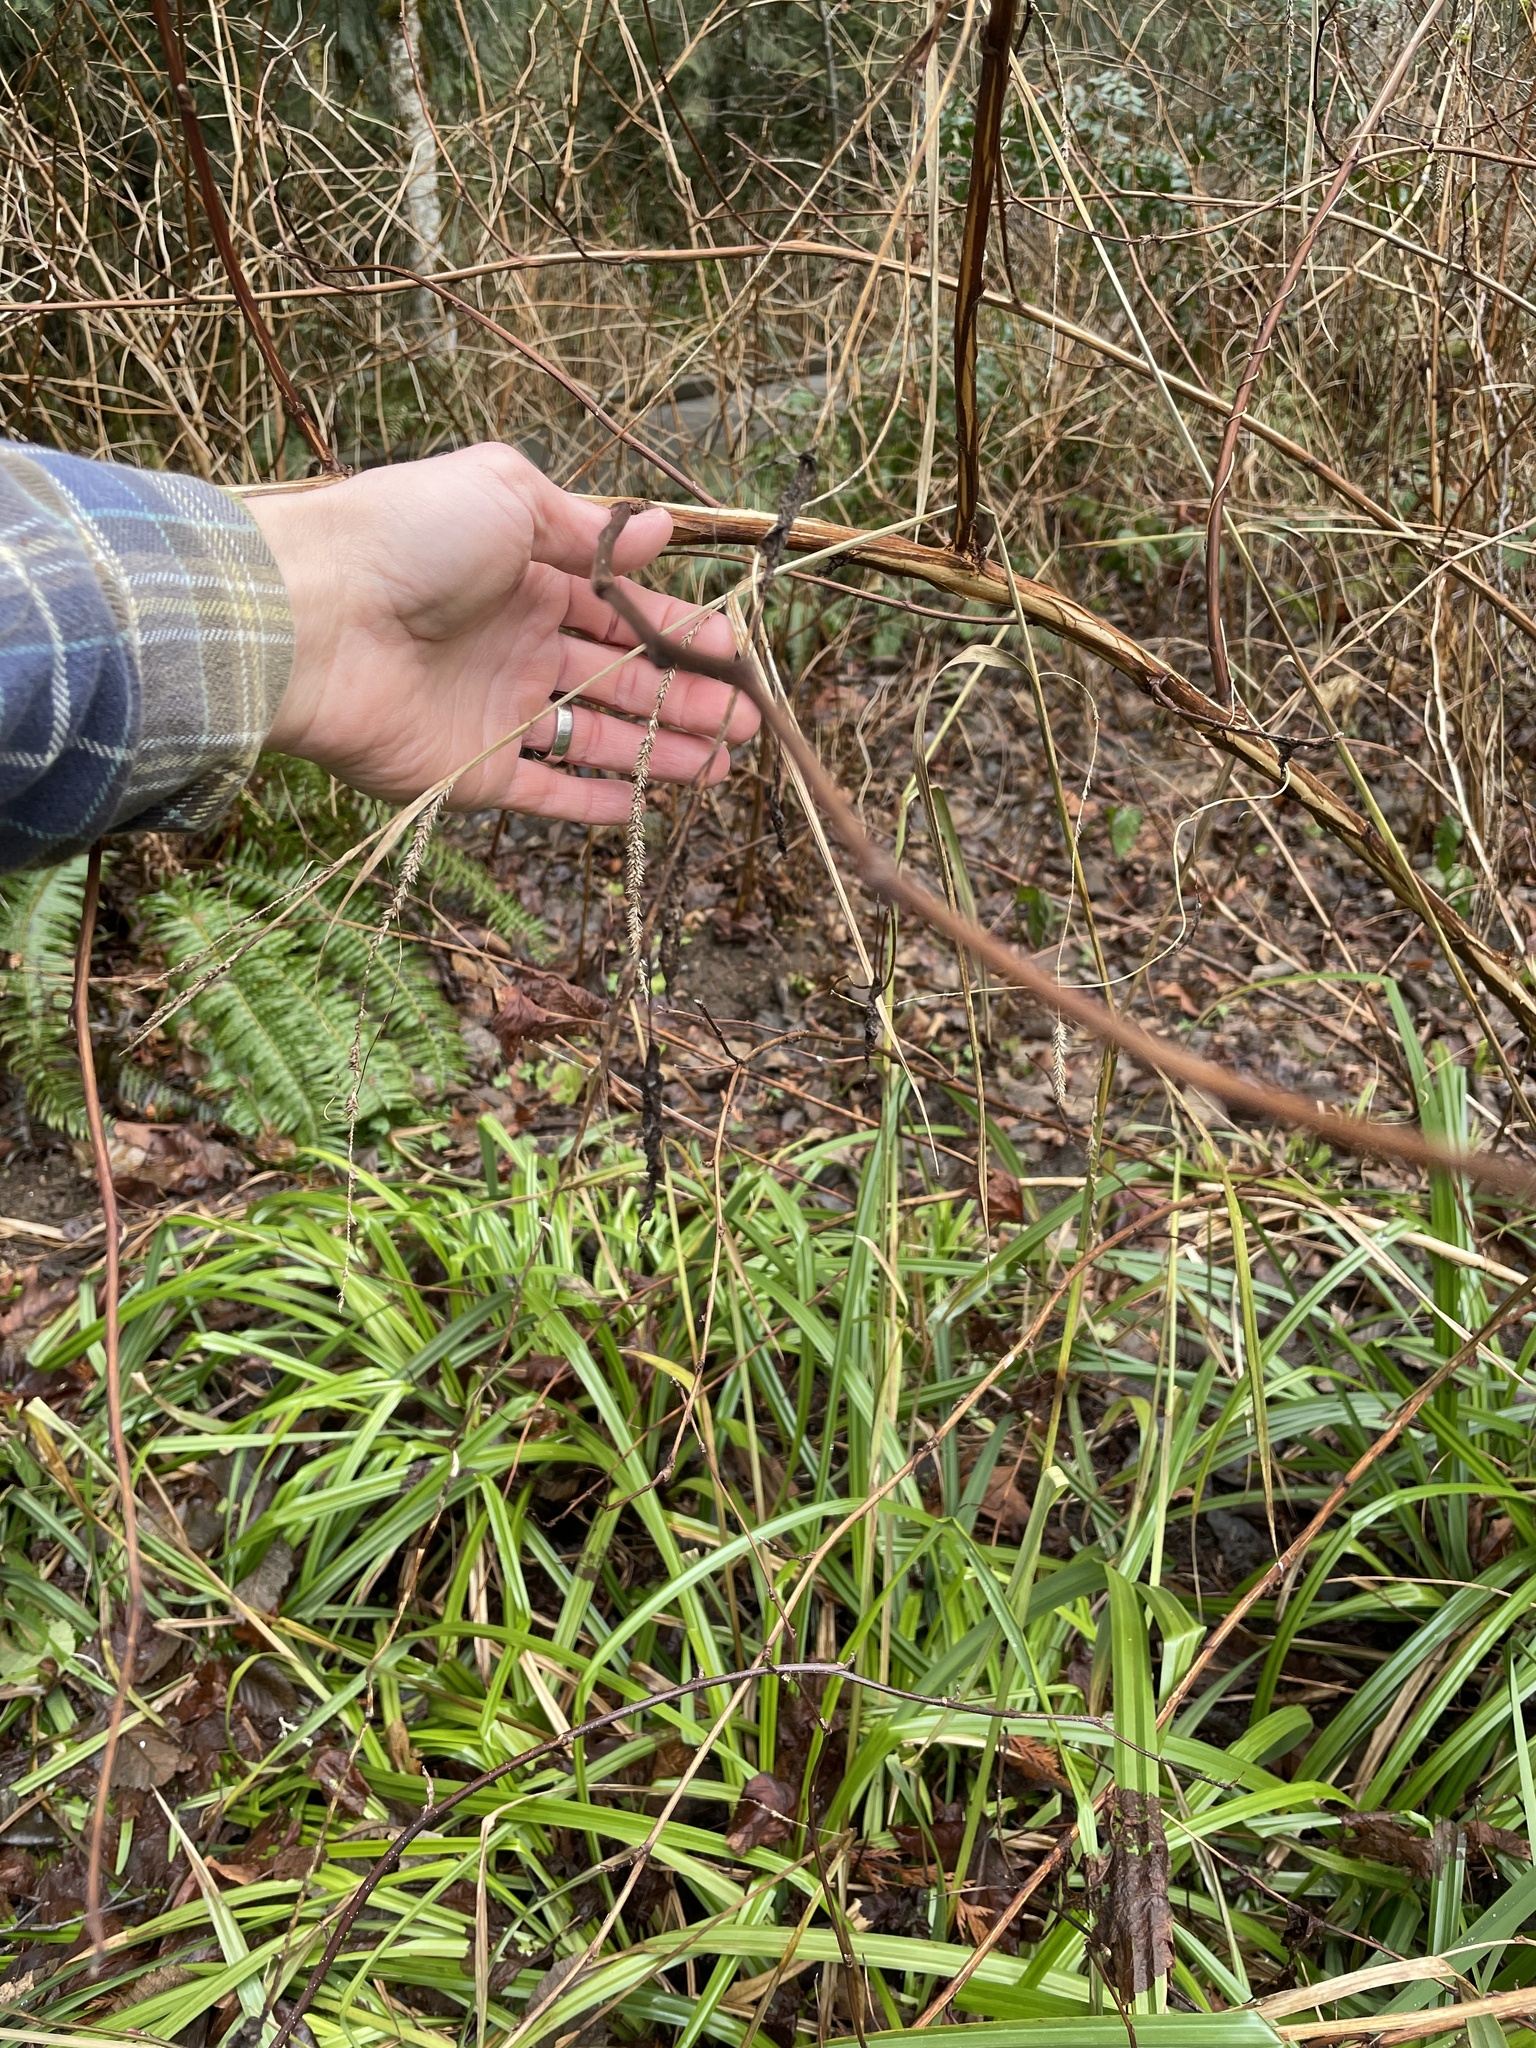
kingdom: Plantae
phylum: Tracheophyta
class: Liliopsida
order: Poales
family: Cyperaceae
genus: Carex
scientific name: Carex pendula
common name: Pendulous sedge
